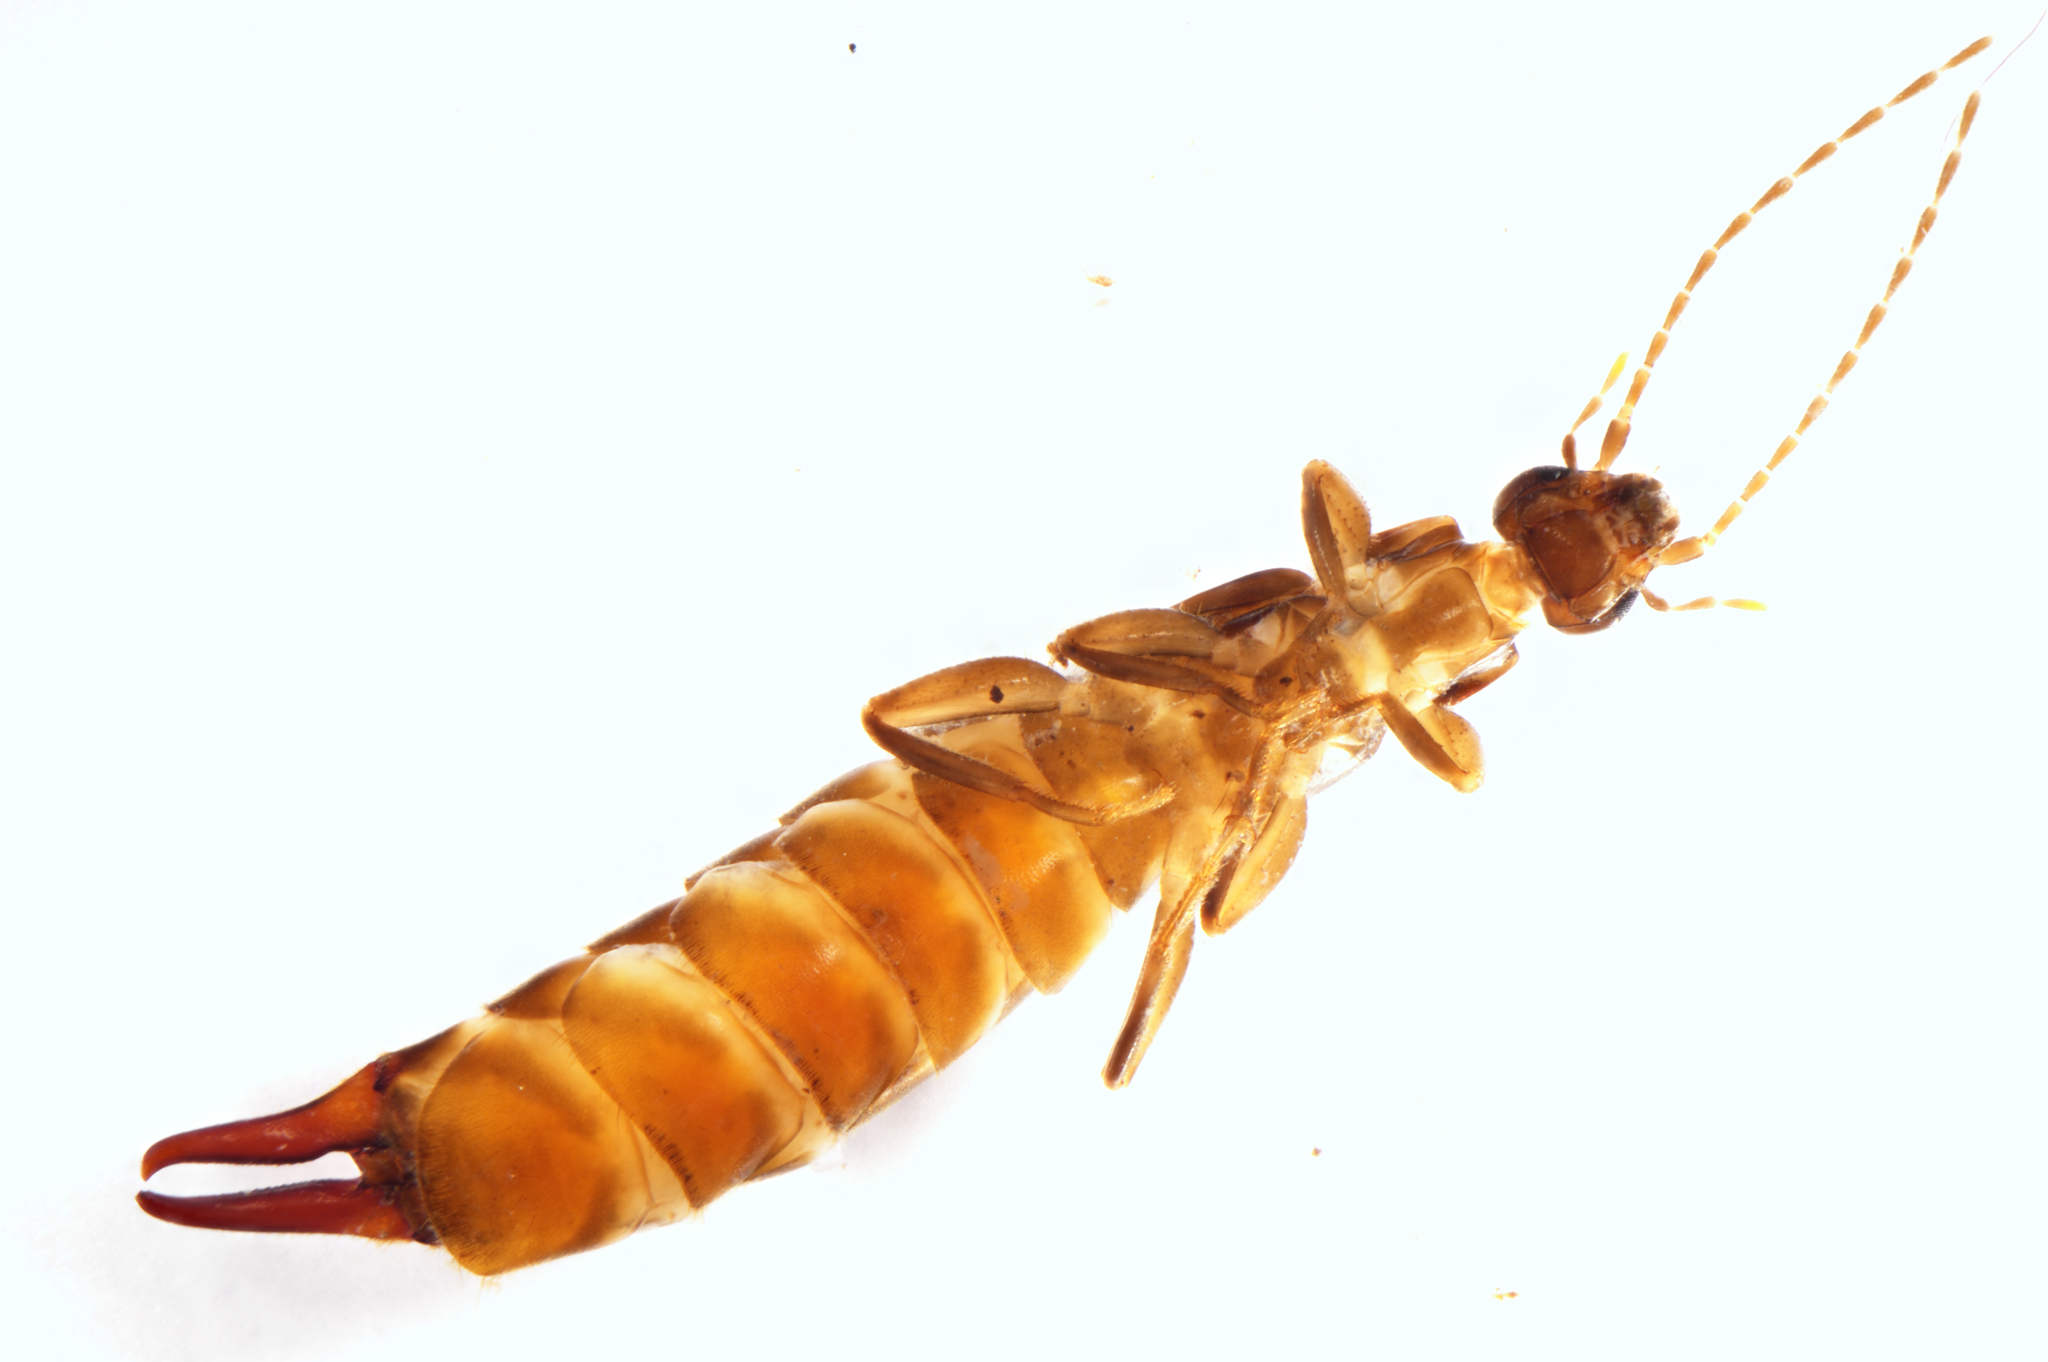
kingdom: Animalia
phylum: Arthropoda
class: Insecta
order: Dermaptera
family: Spongiphoridae
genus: Nesogaster
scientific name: Nesogaster halli
